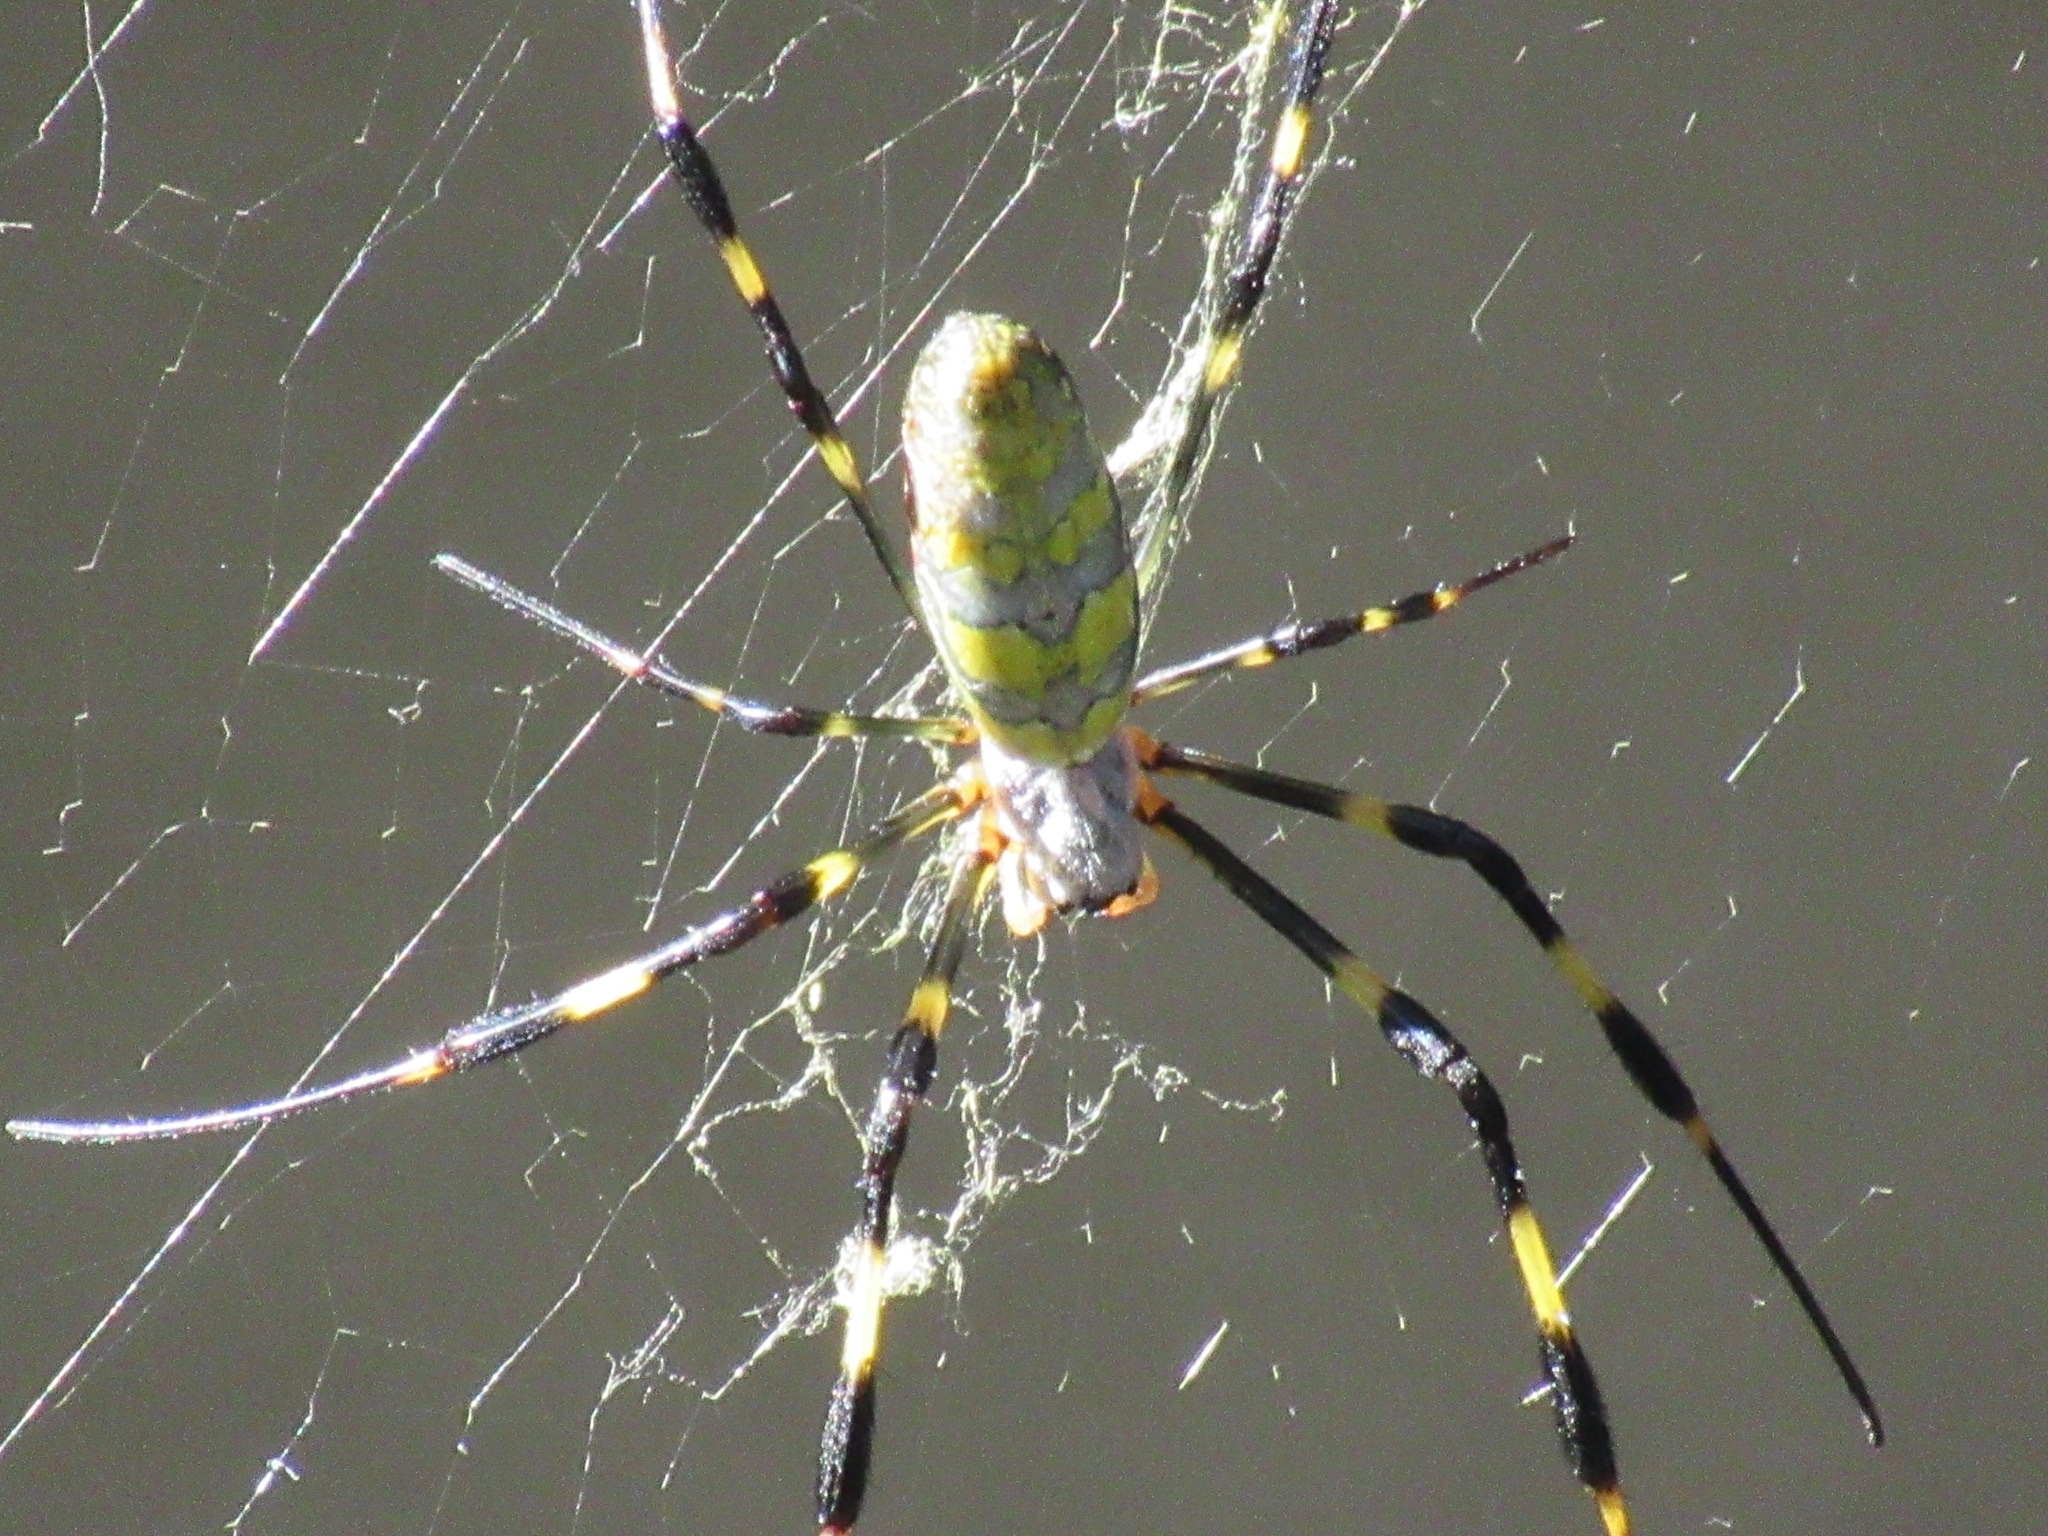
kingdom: Animalia
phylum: Arthropoda
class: Arachnida
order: Araneae
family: Araneidae
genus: Trichonephila
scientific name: Trichonephila clavata
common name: Jorō spider
